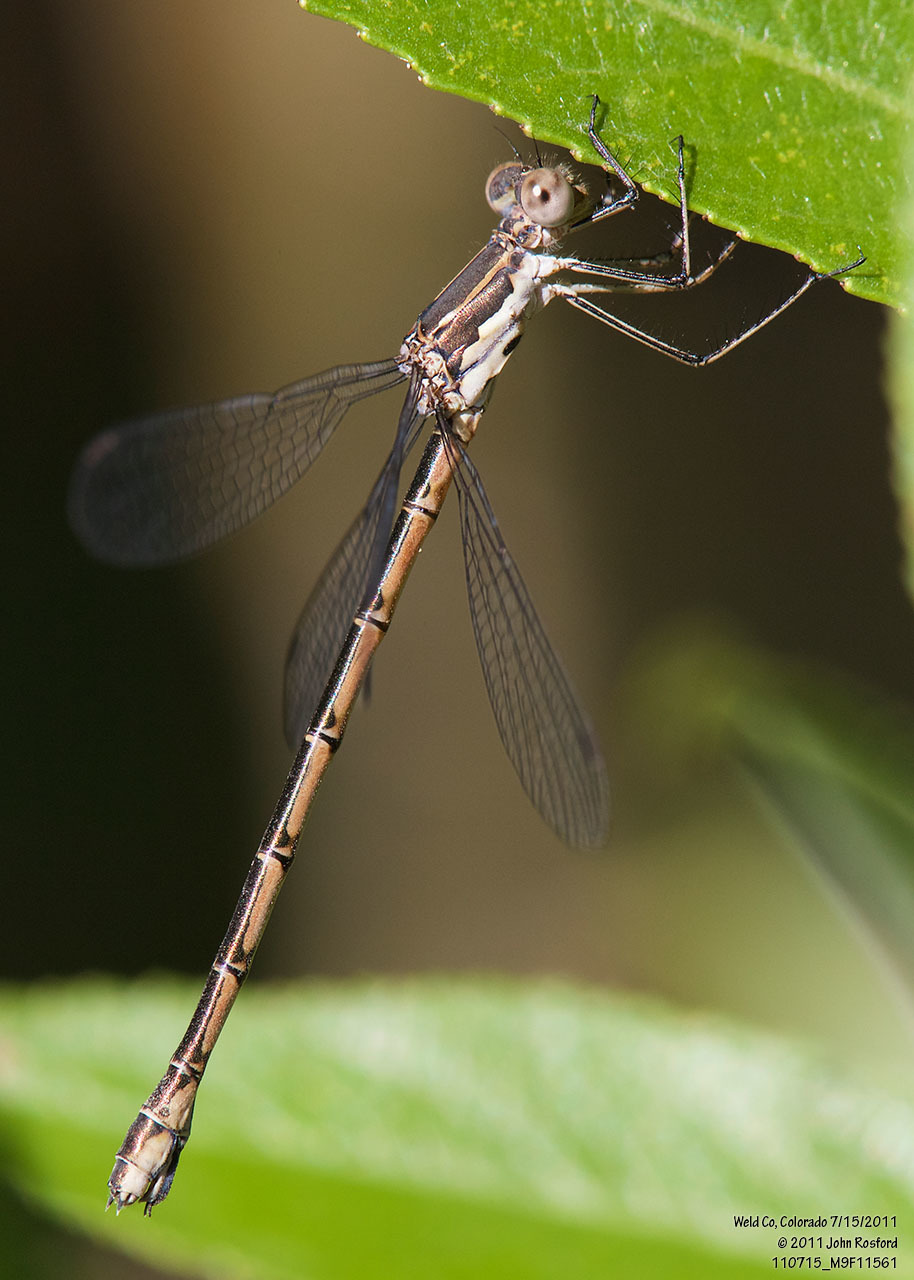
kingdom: Animalia
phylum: Arthropoda
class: Insecta
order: Odonata
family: Lestidae
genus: Lestes
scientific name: Lestes congener
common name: Spotted spreadwing
